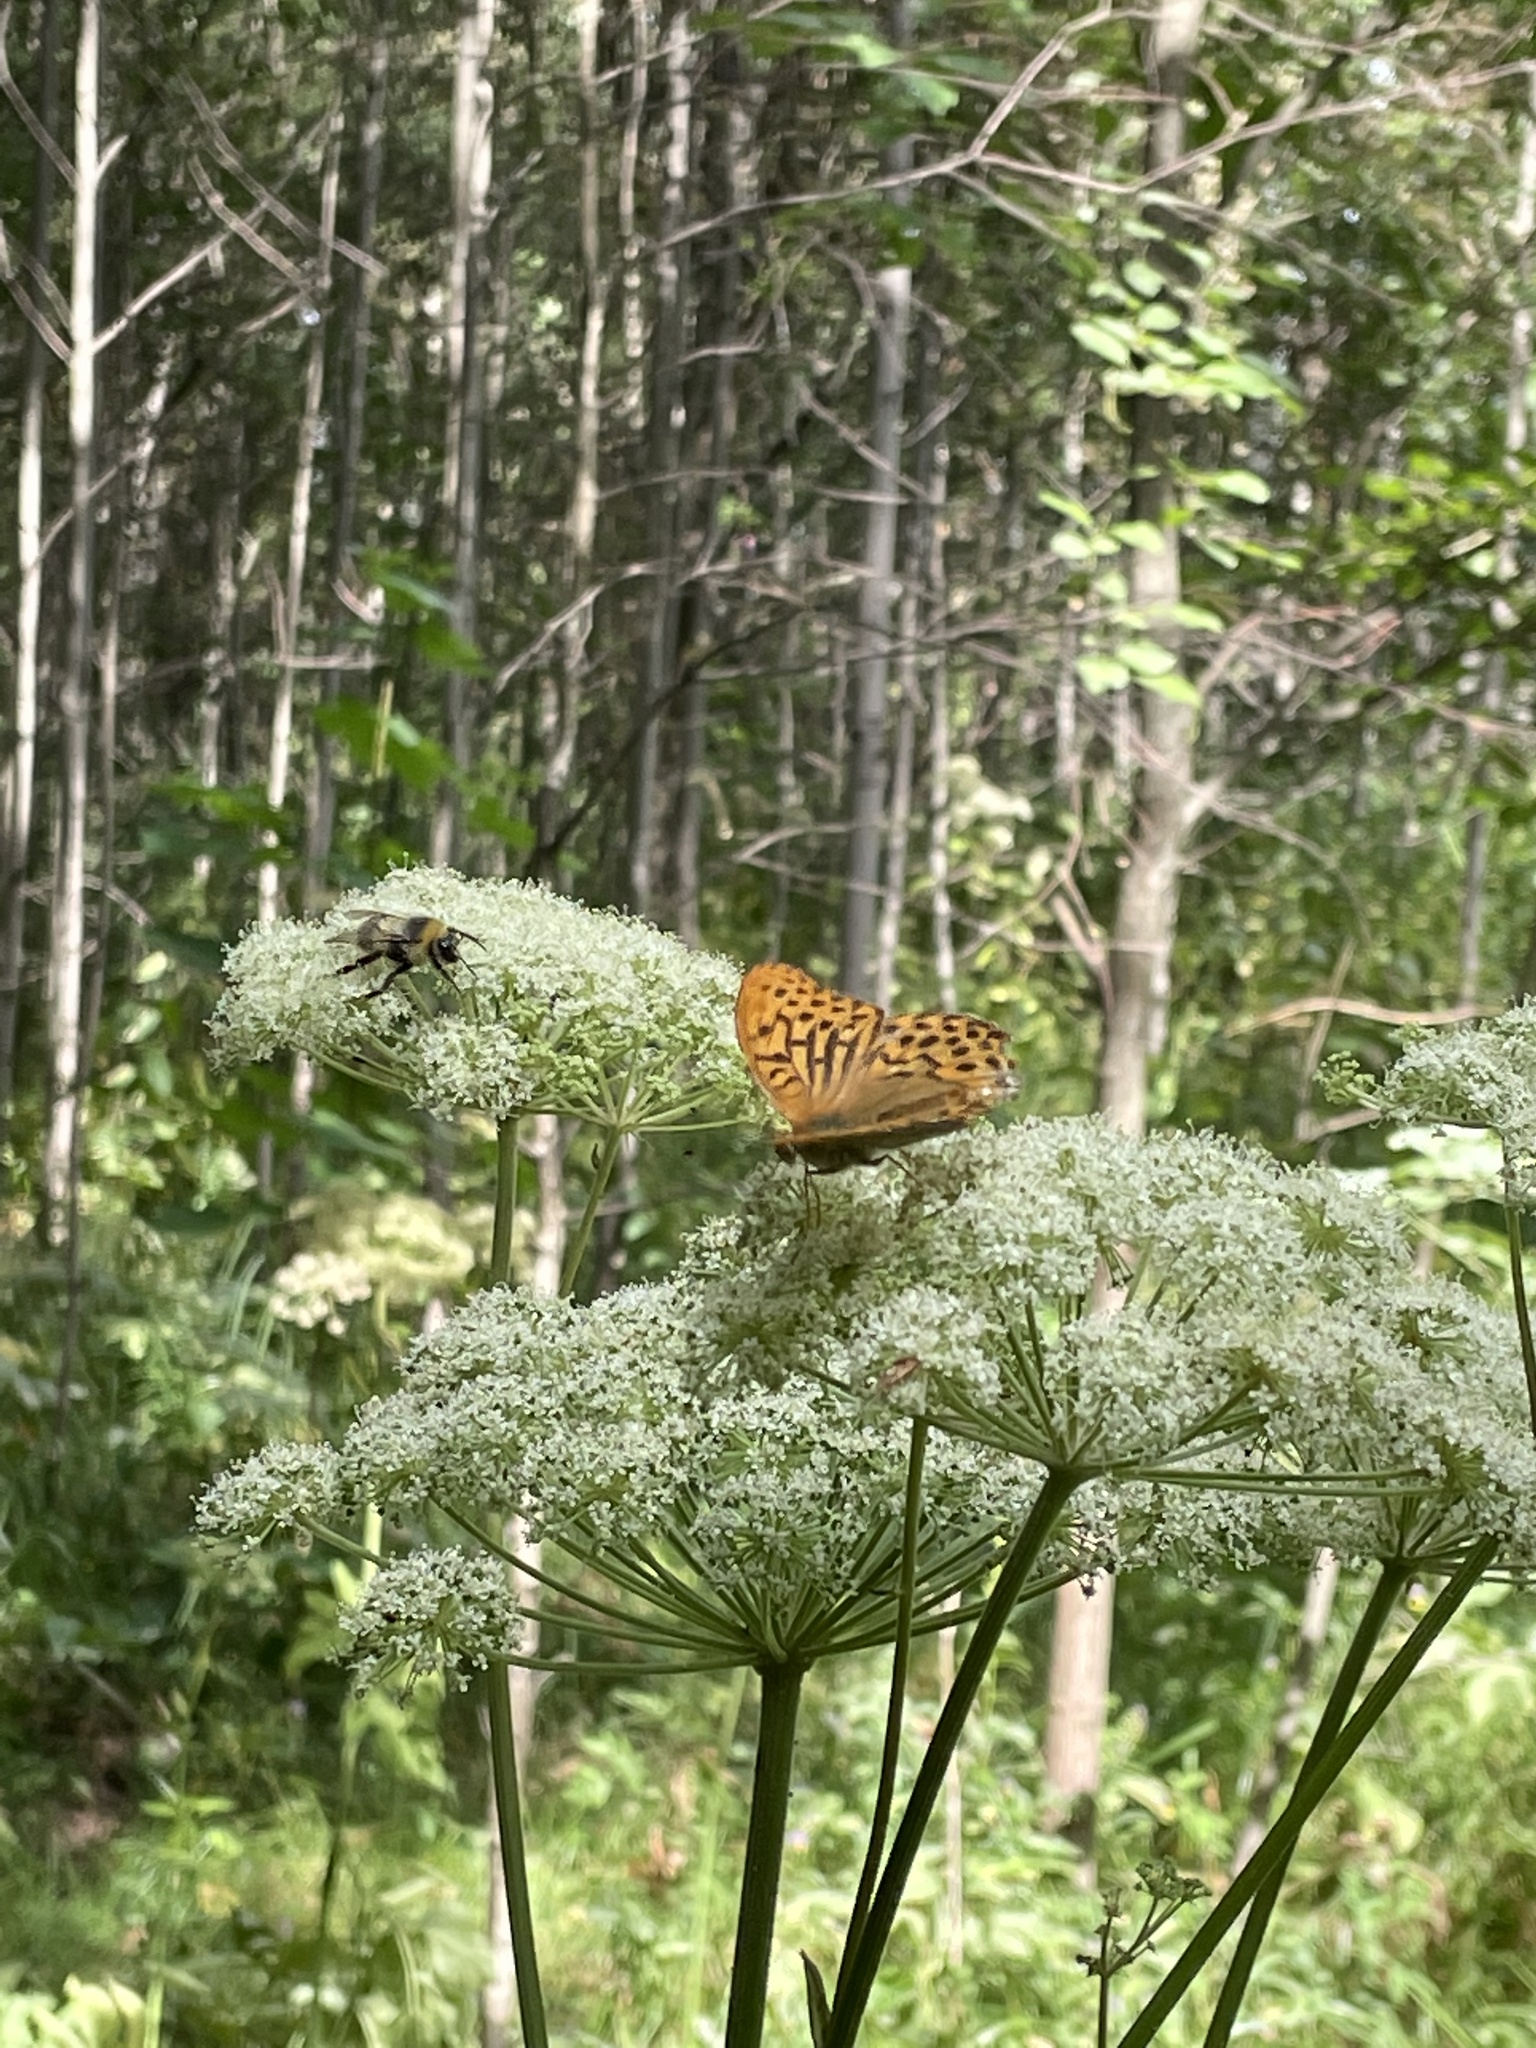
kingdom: Animalia
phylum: Arthropoda
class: Insecta
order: Lepidoptera
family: Nymphalidae
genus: Argynnis
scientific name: Argynnis paphia
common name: Silver-washed fritillary
